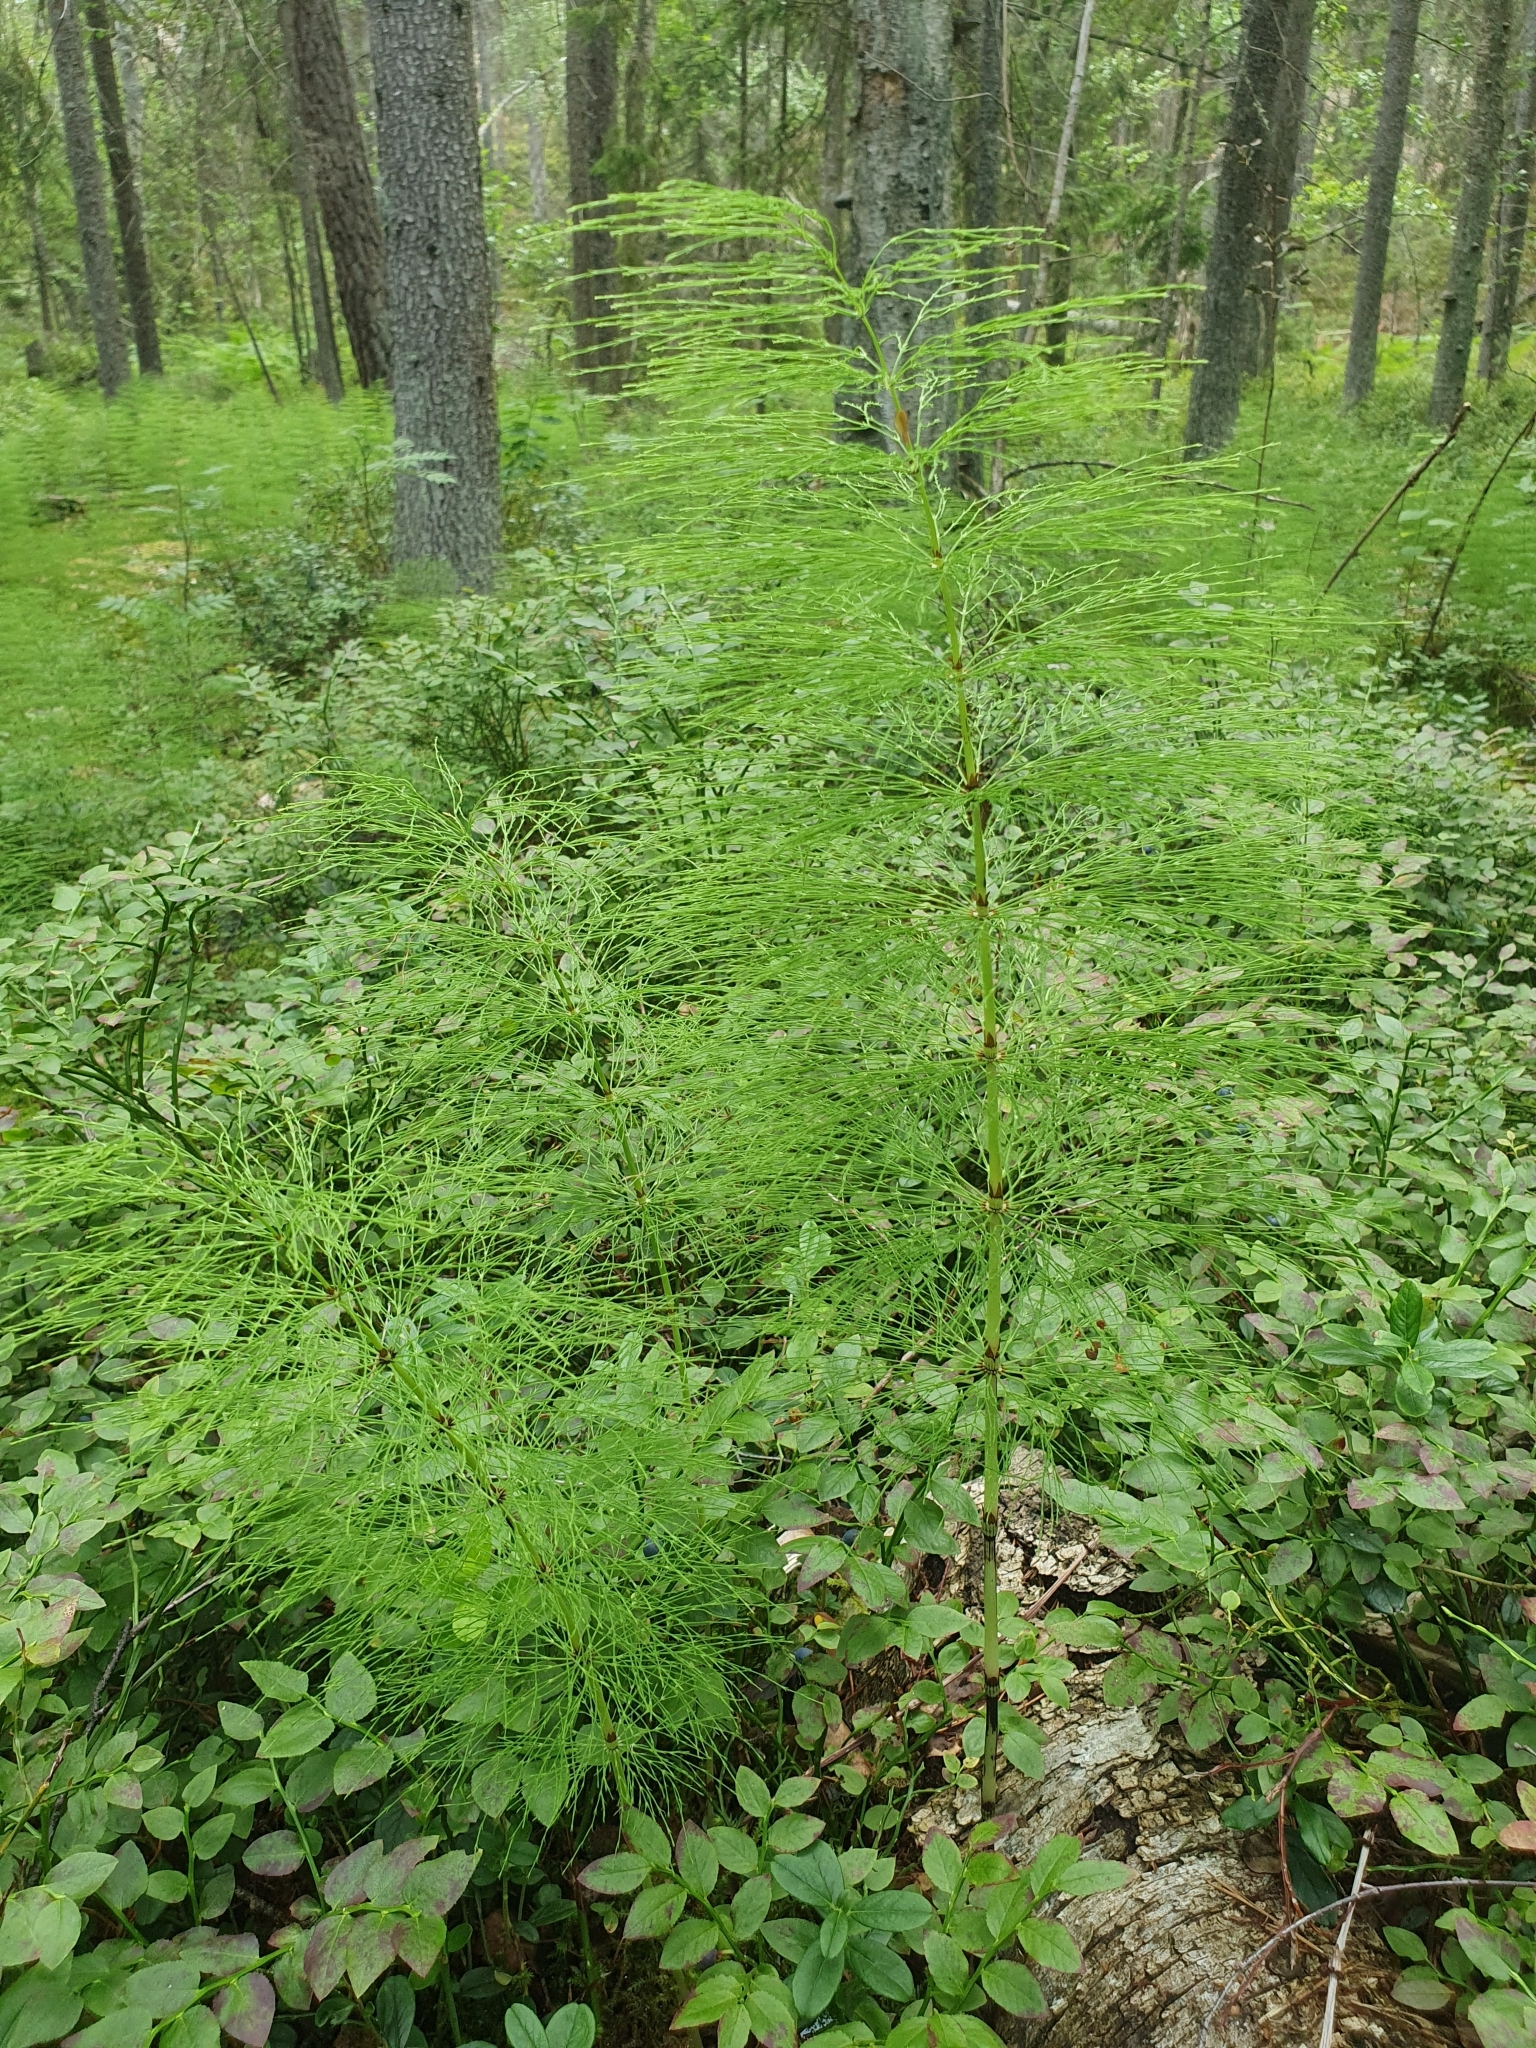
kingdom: Plantae
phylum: Tracheophyta
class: Polypodiopsida
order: Equisetales
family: Equisetaceae
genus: Equisetum
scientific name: Equisetum sylvaticum
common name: Wood horsetail
